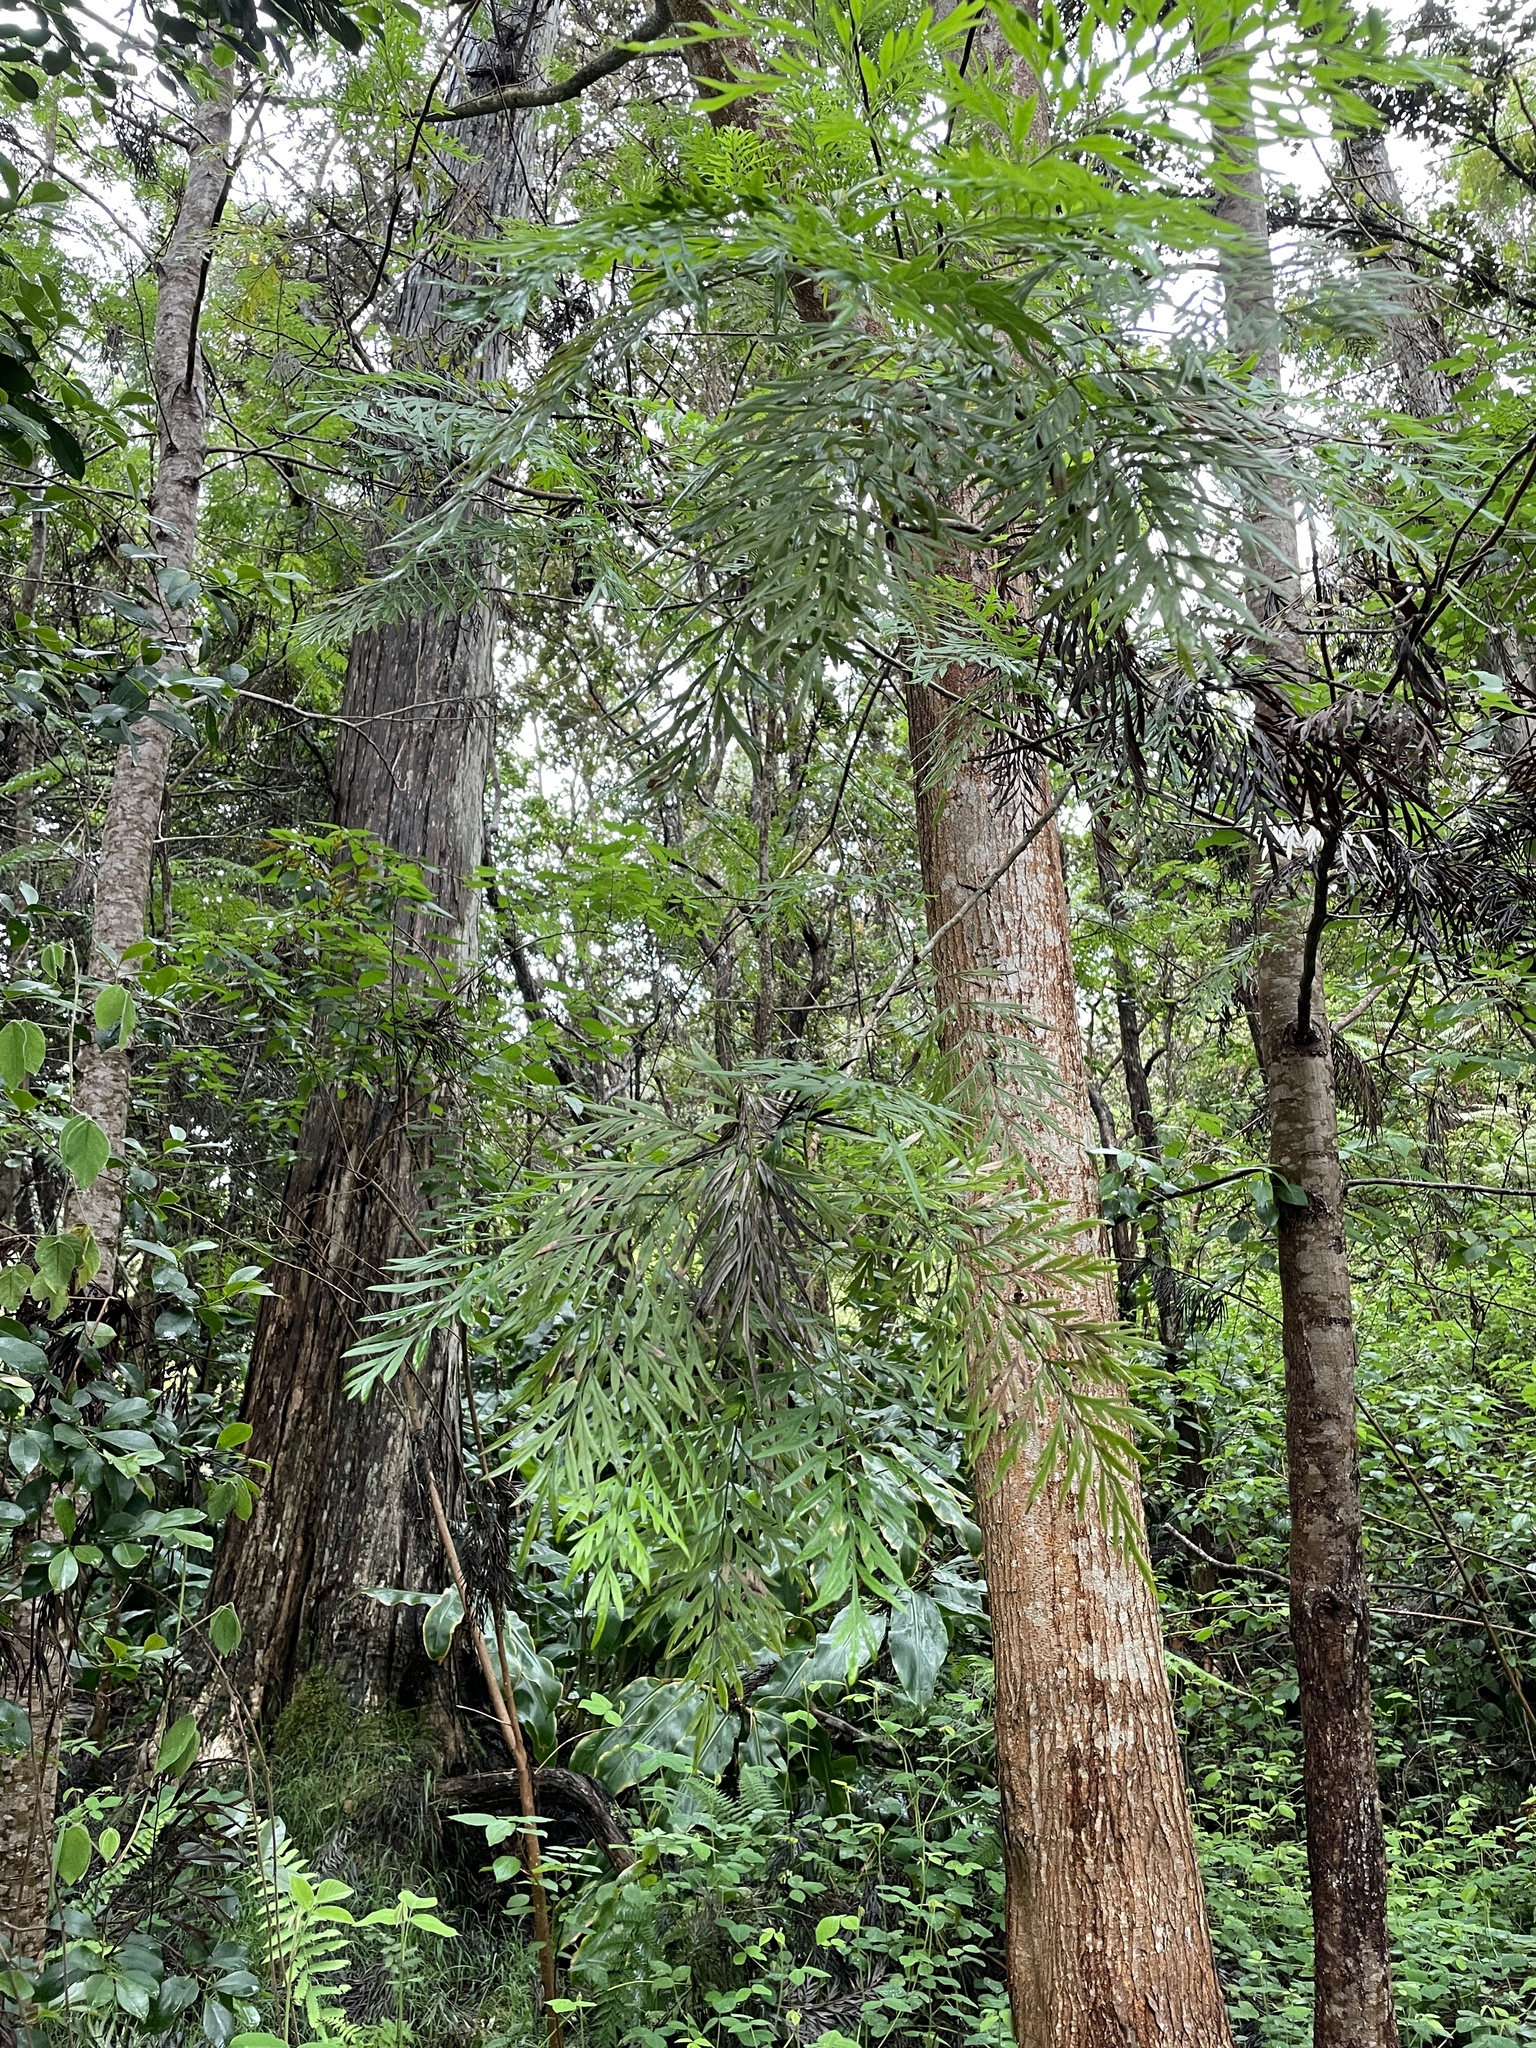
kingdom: Plantae
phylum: Tracheophyta
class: Magnoliopsida
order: Proteales
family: Proteaceae
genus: Grevillea
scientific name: Grevillea robusta
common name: Silkoak
